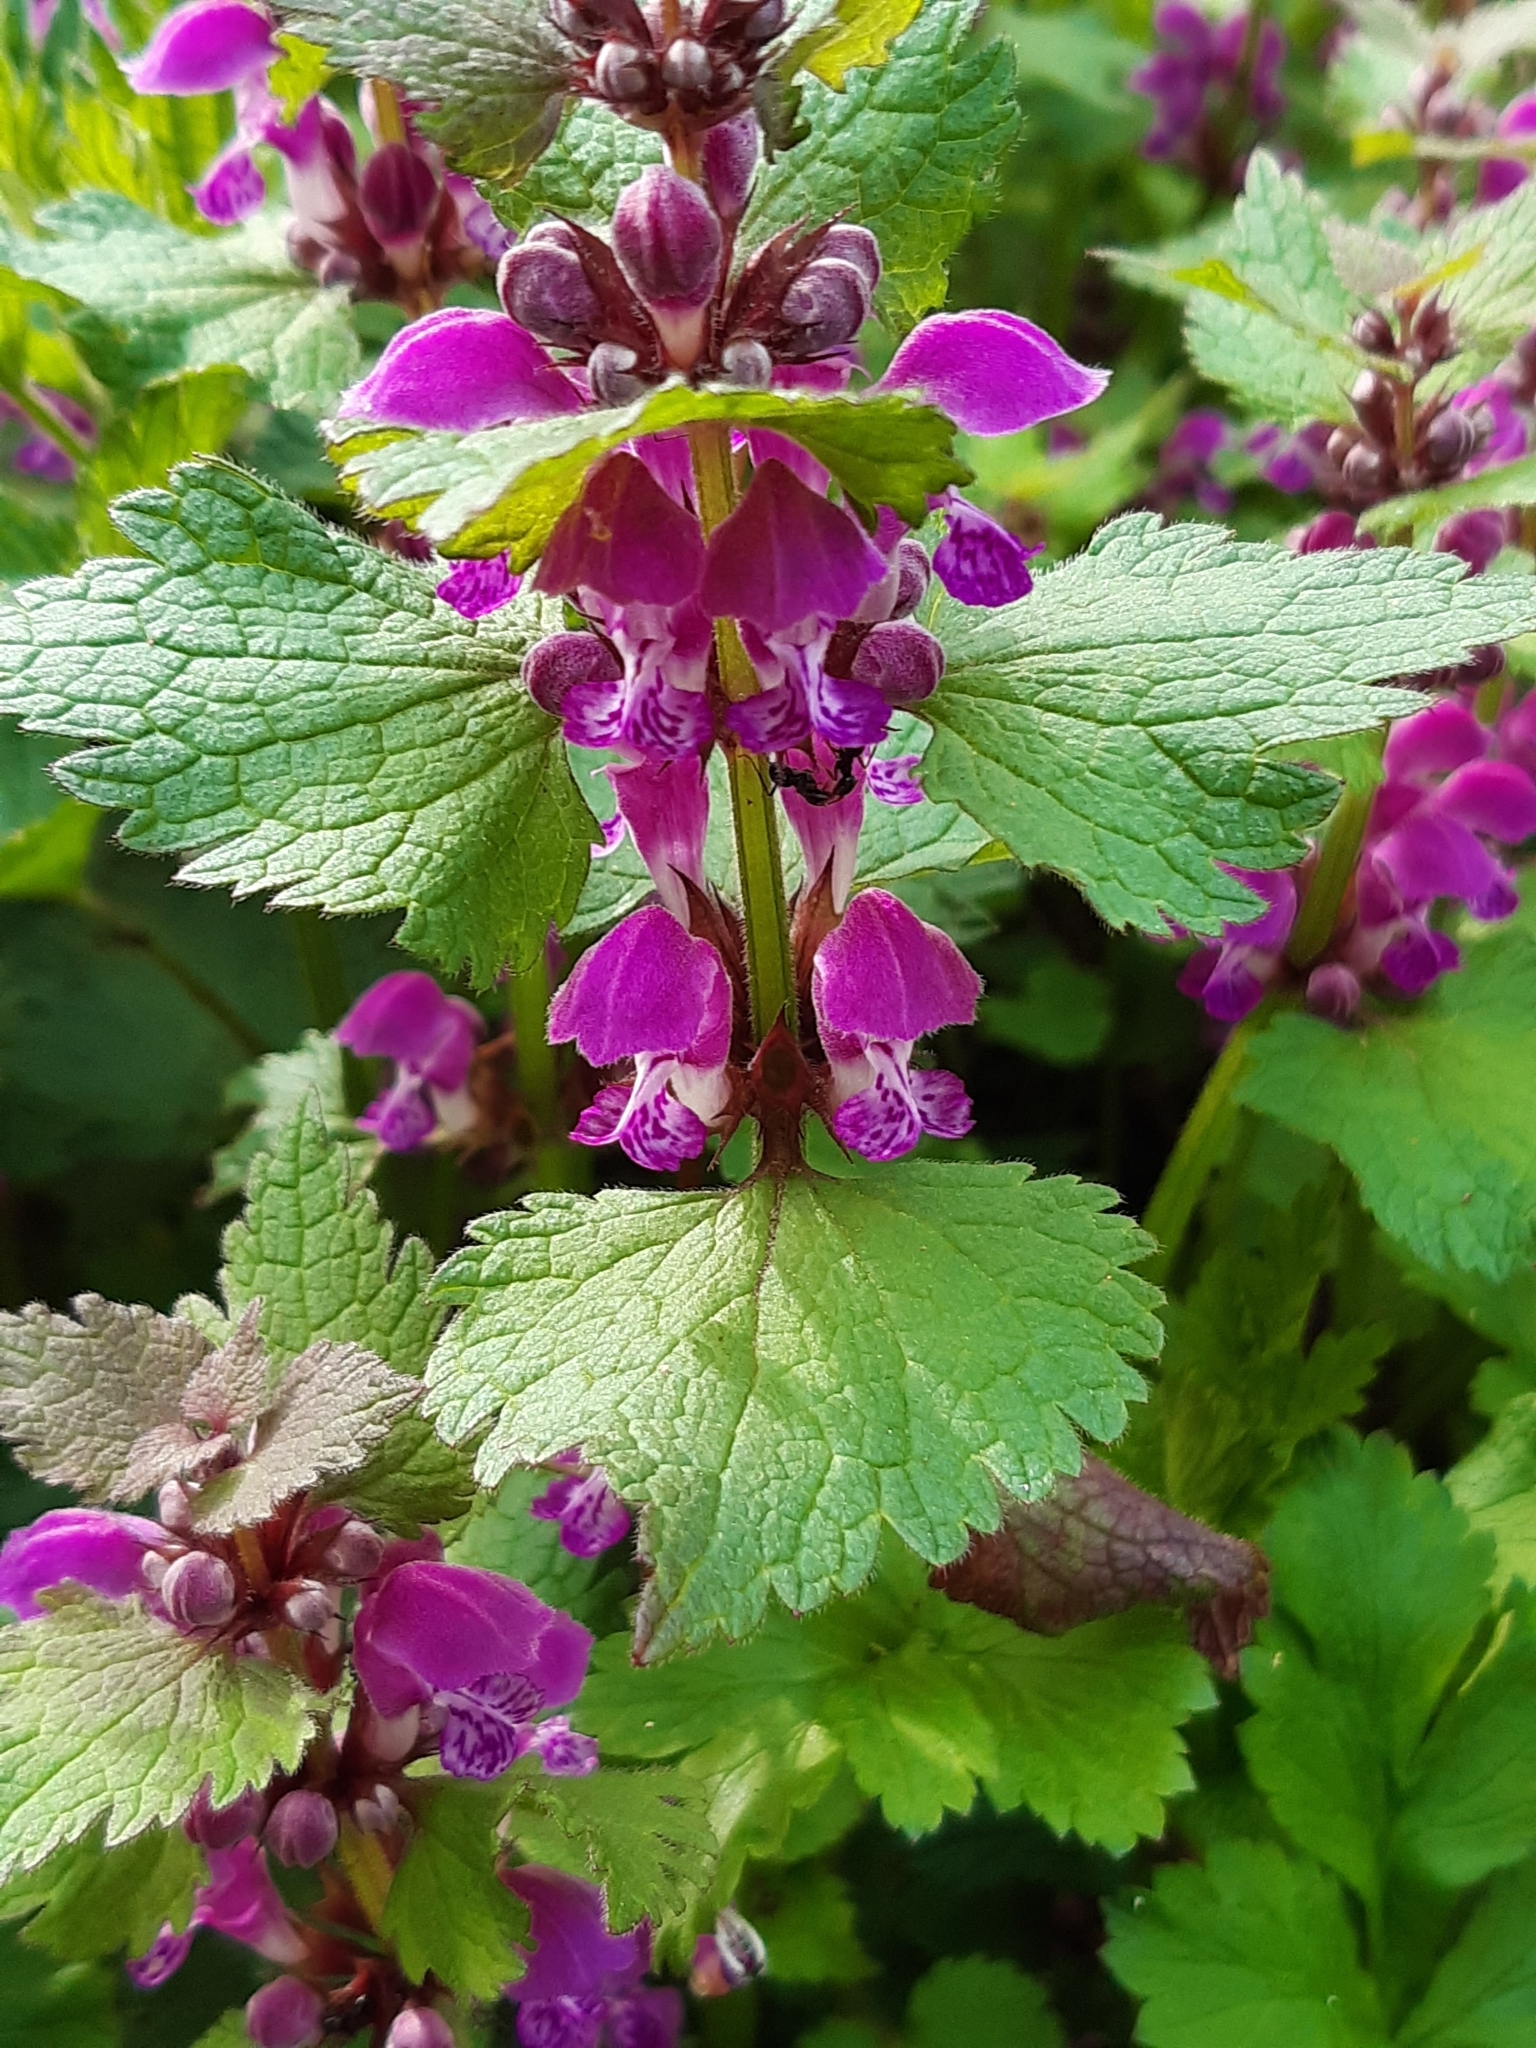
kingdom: Plantae
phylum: Tracheophyta
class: Magnoliopsida
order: Lamiales
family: Lamiaceae
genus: Lamium
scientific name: Lamium maculatum
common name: Spotted dead-nettle
